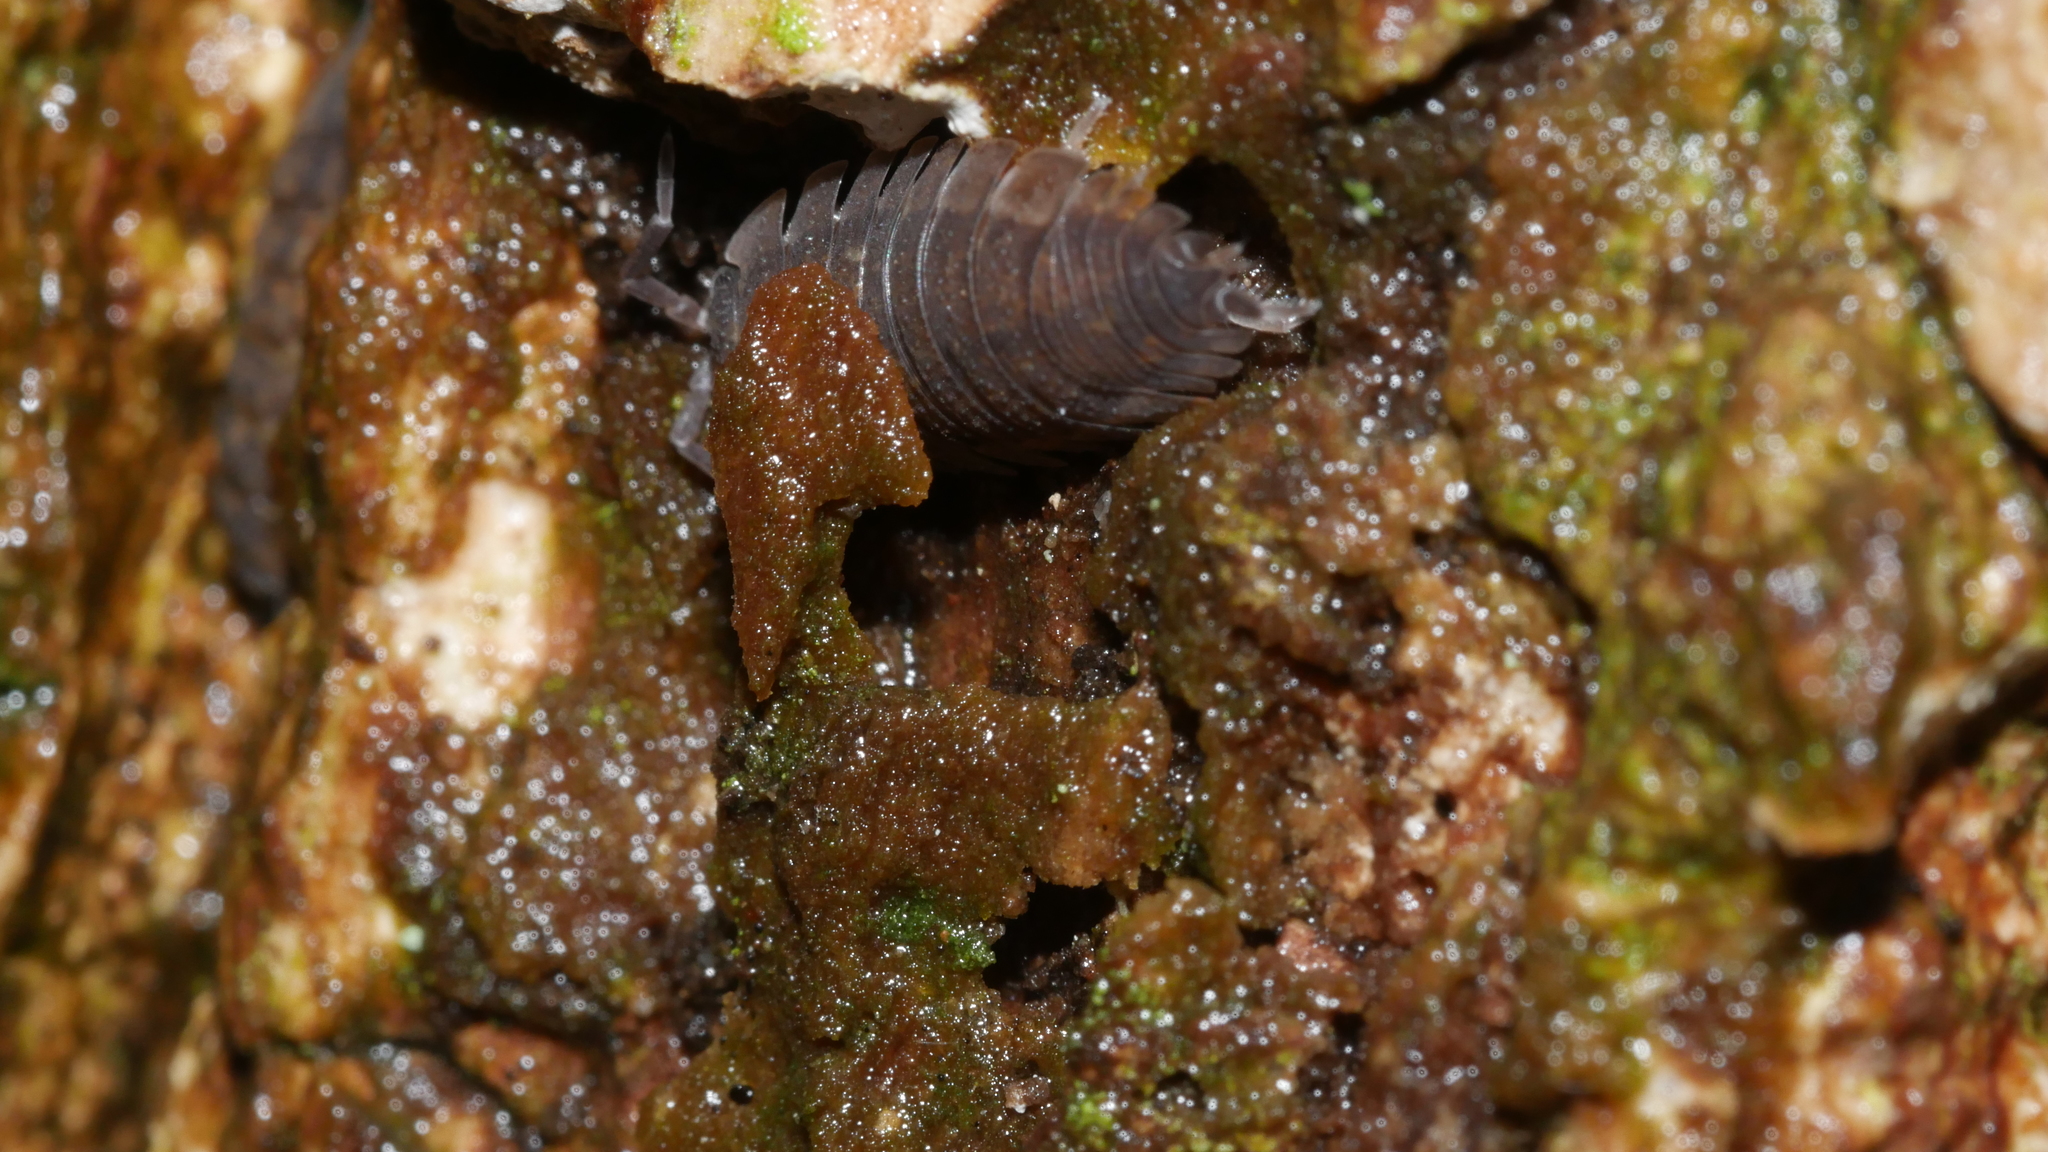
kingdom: Animalia
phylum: Arthropoda
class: Malacostraca
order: Isopoda
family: Porcellionidae
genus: Porcellio
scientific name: Porcellio scaber
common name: Common rough woodlouse
